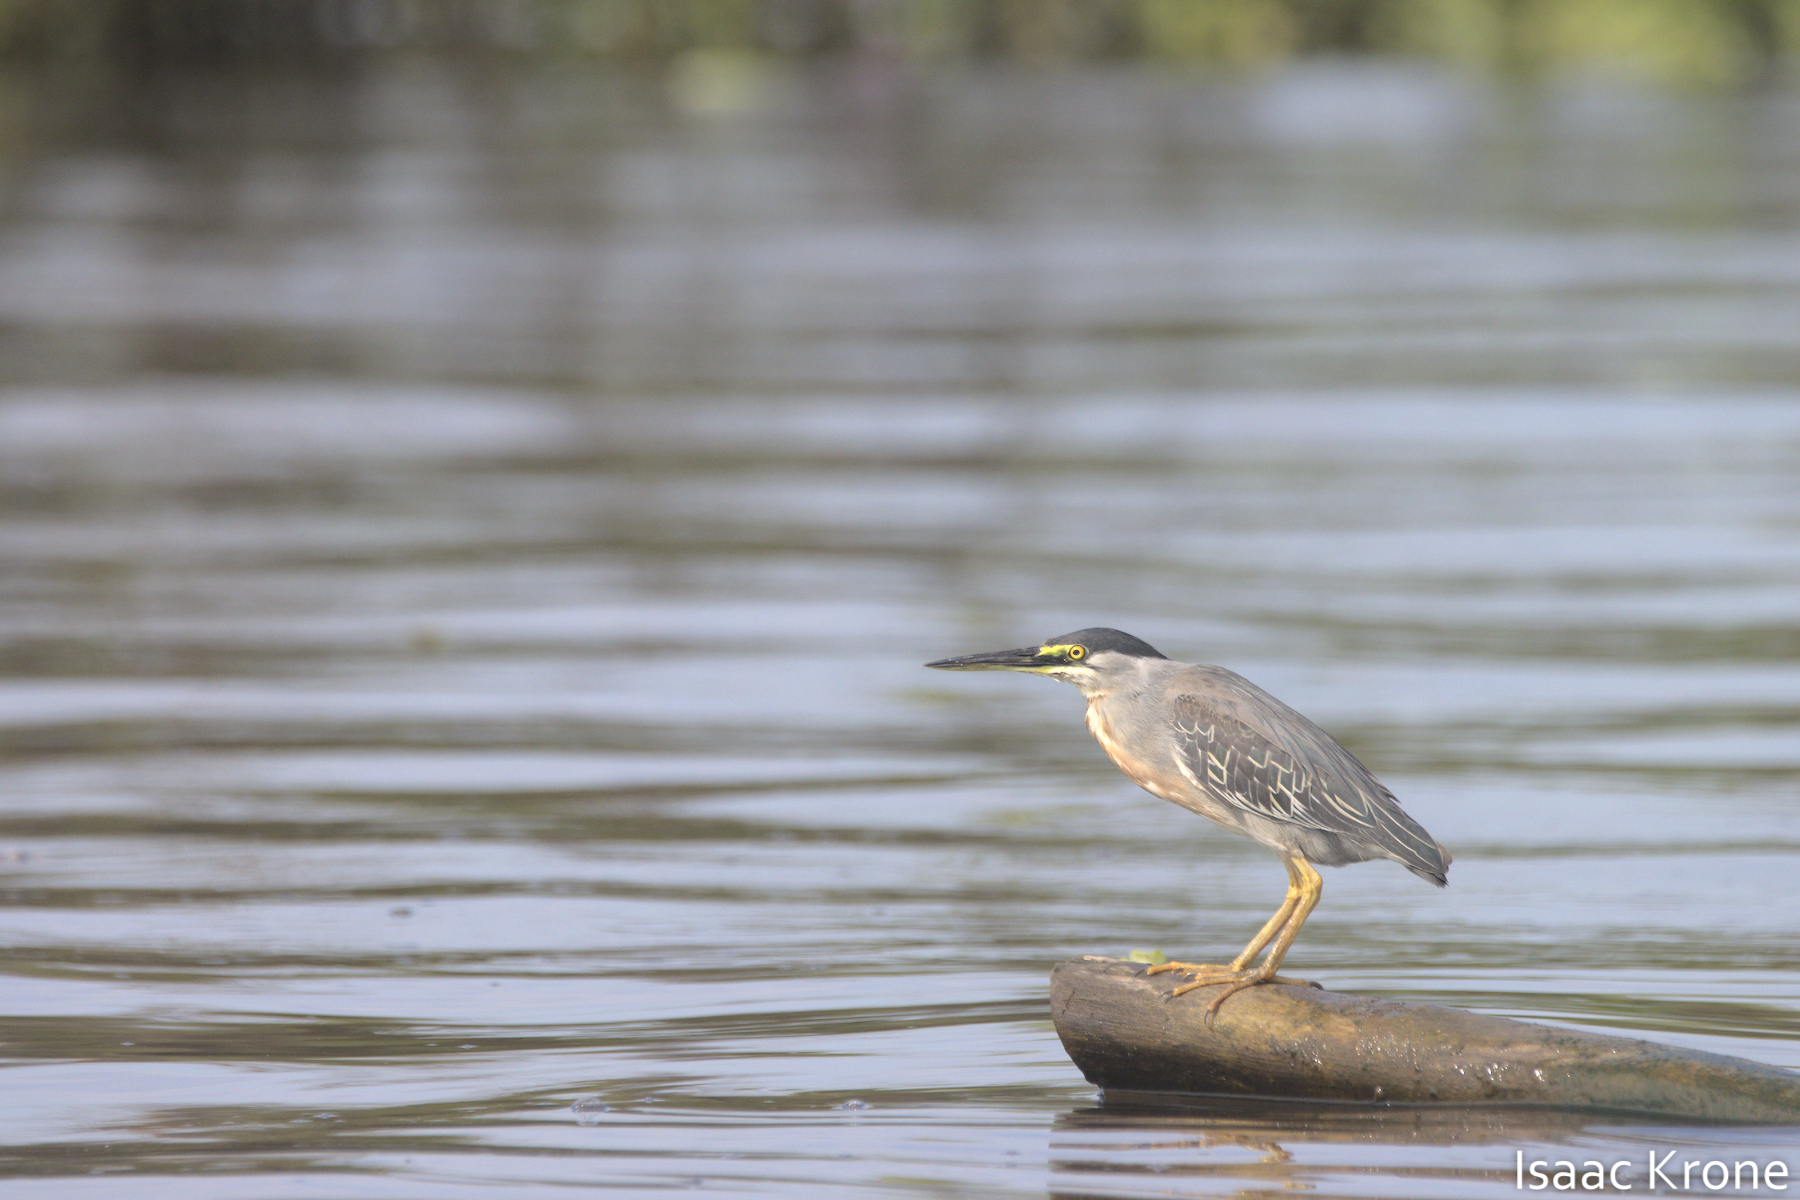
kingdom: Animalia
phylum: Chordata
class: Aves
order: Pelecaniformes
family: Ardeidae
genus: Butorides
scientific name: Butorides striata
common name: Striated heron
